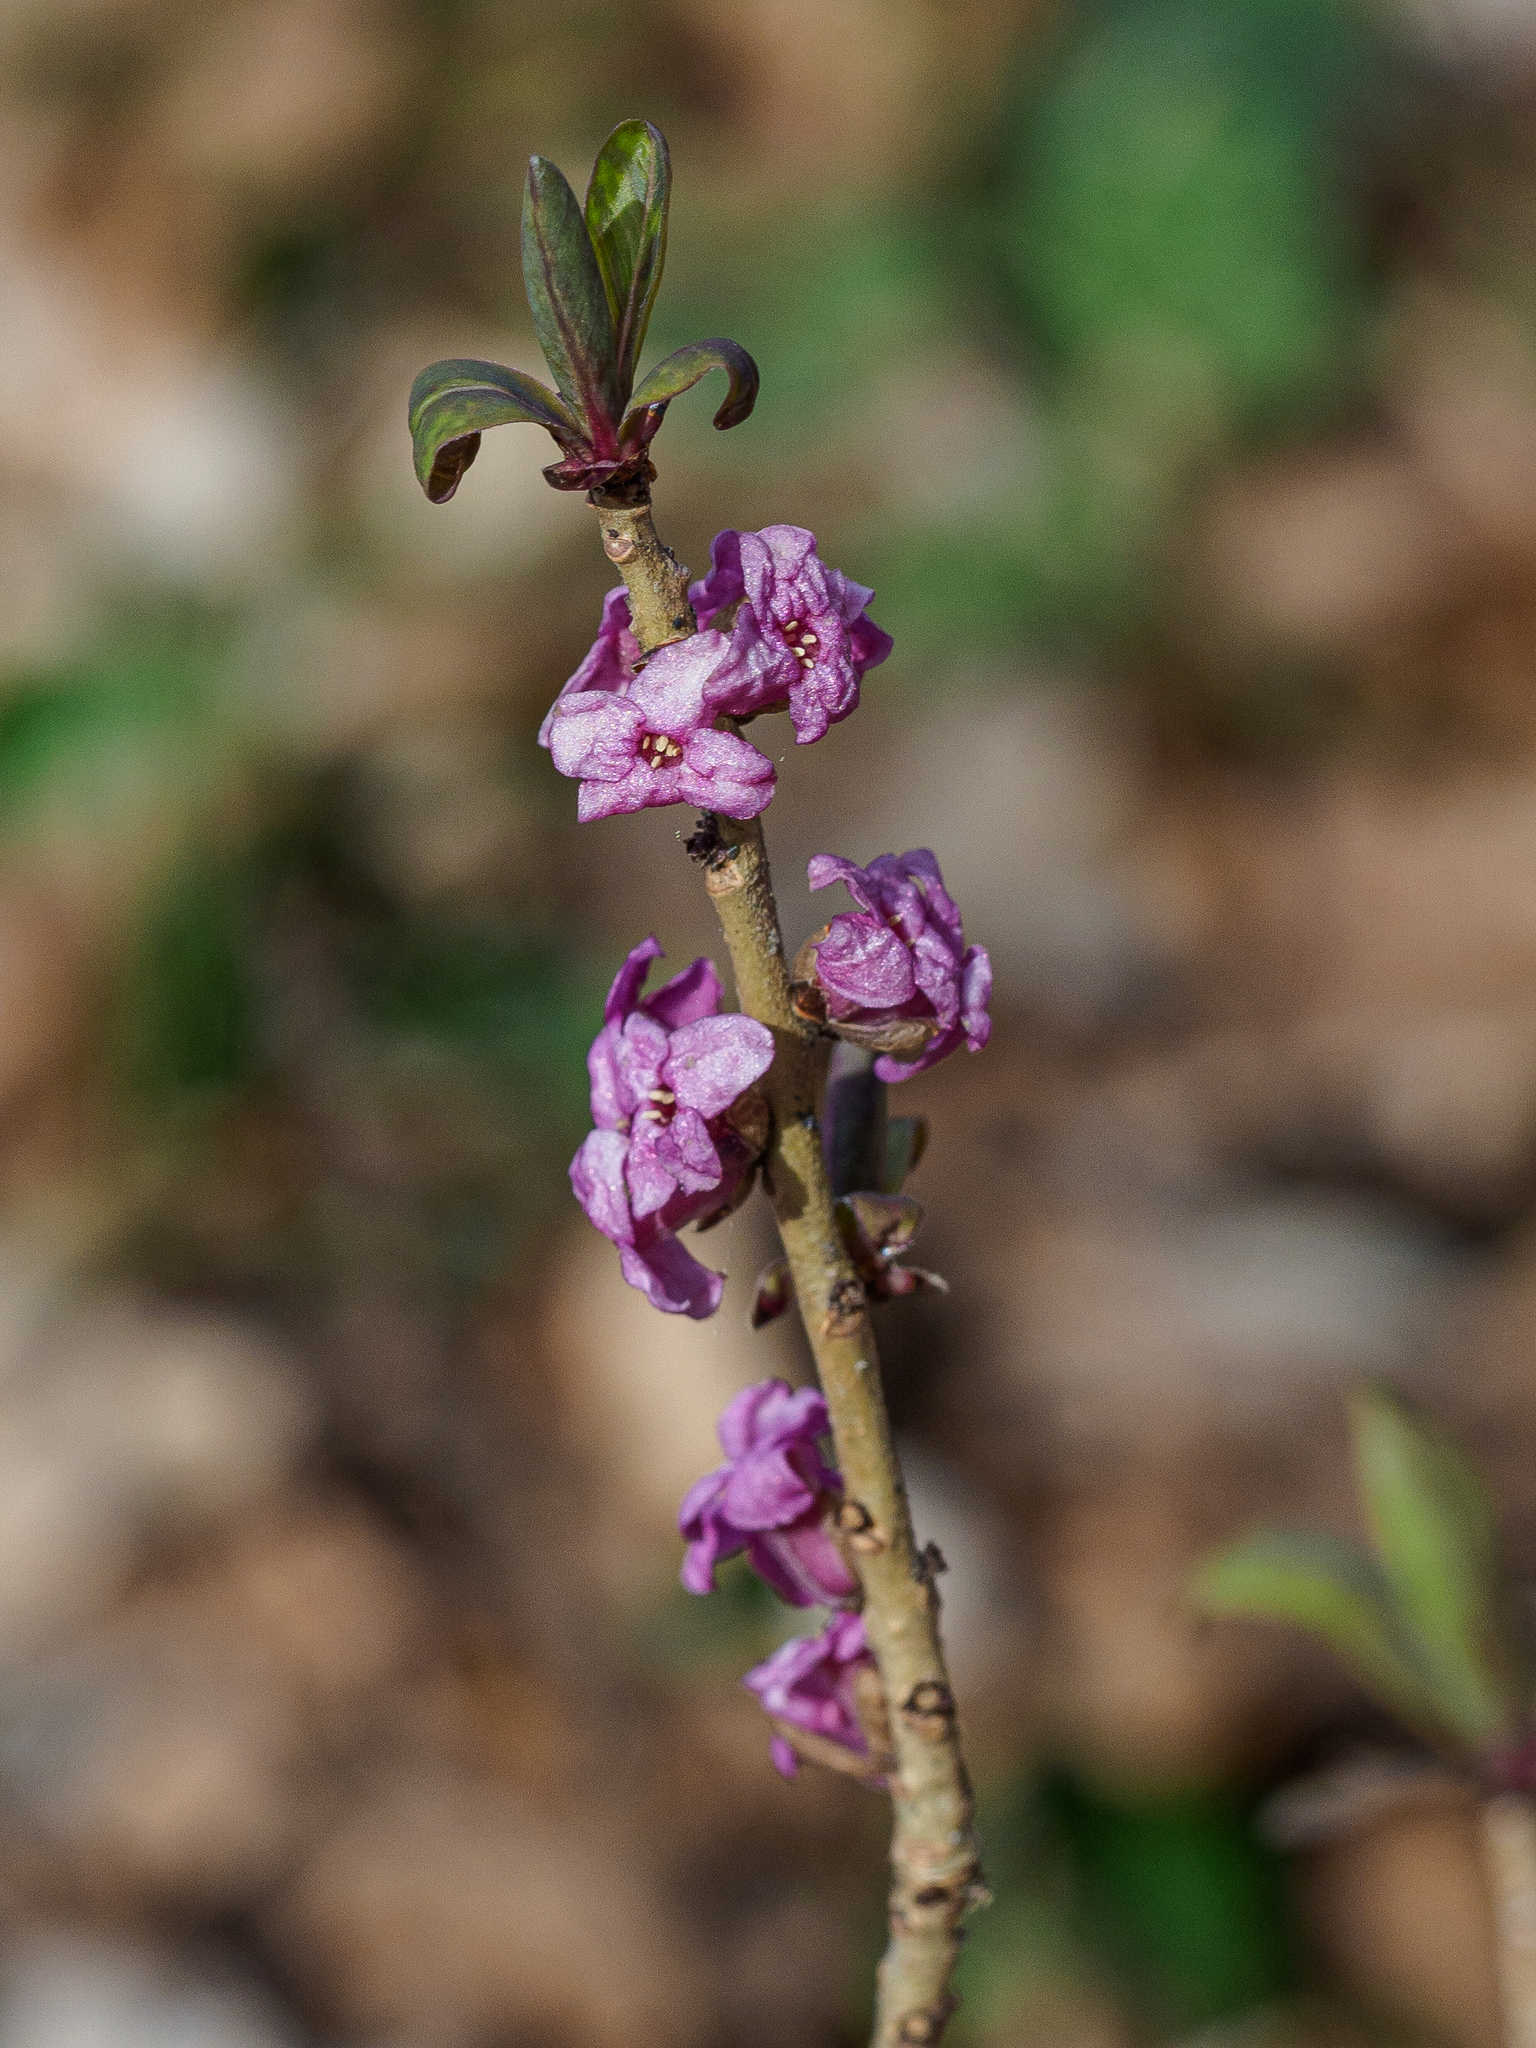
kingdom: Plantae
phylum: Tracheophyta
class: Magnoliopsida
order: Malvales
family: Thymelaeaceae
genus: Daphne
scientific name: Daphne mezereum
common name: Mezereon
